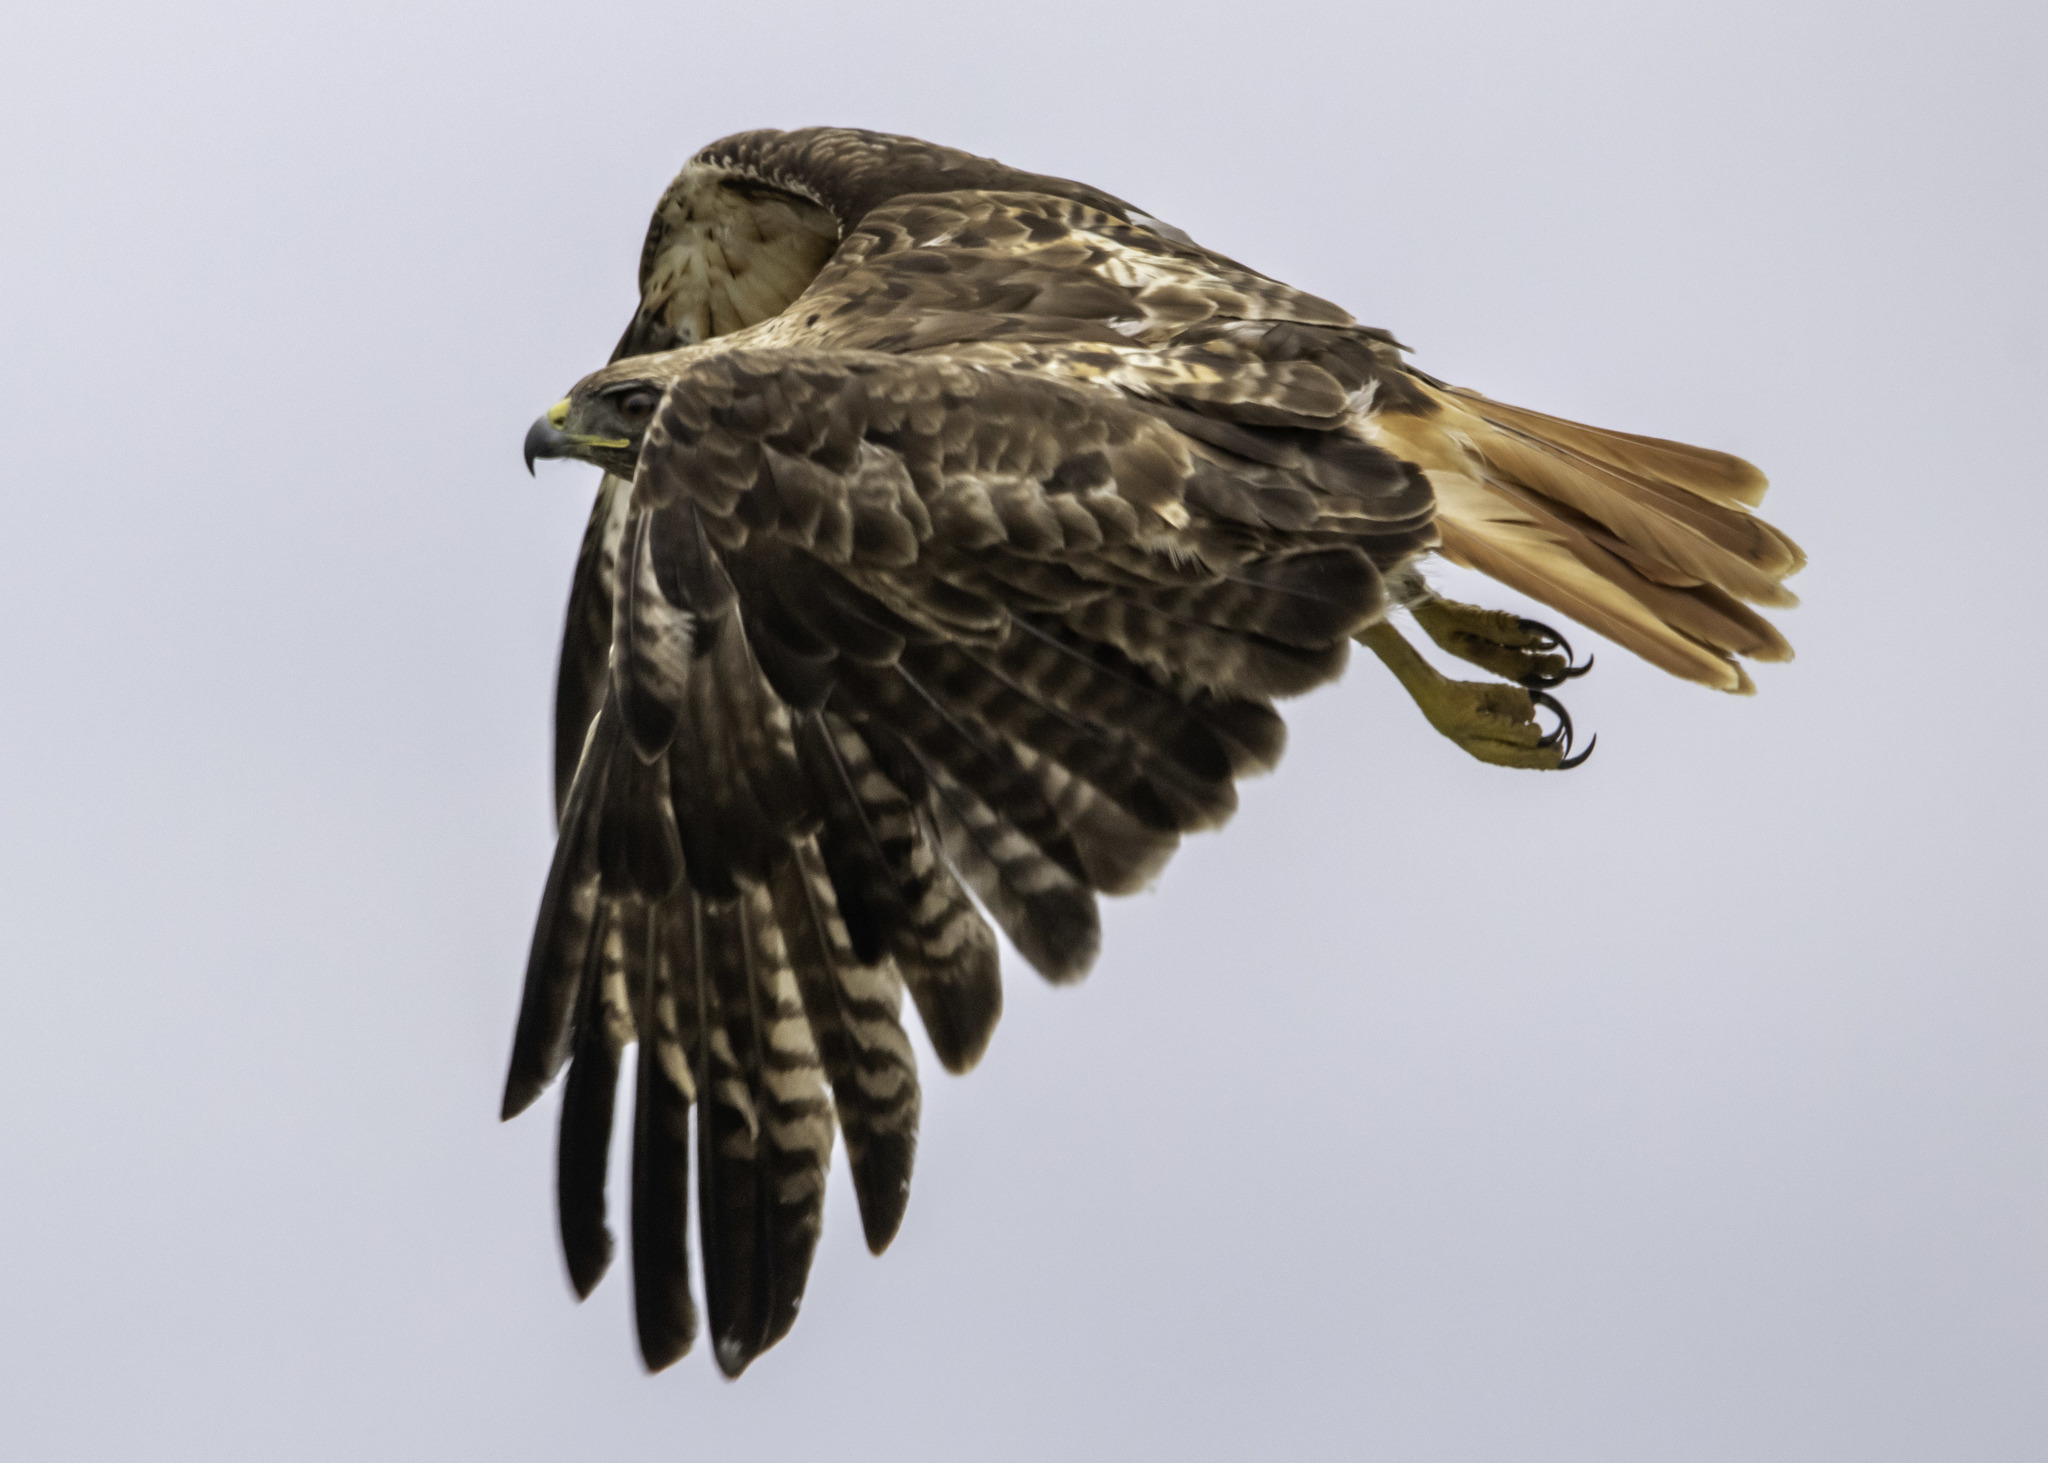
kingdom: Animalia
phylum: Chordata
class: Aves
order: Accipitriformes
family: Accipitridae
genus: Buteo
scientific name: Buteo jamaicensis
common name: Red-tailed hawk
